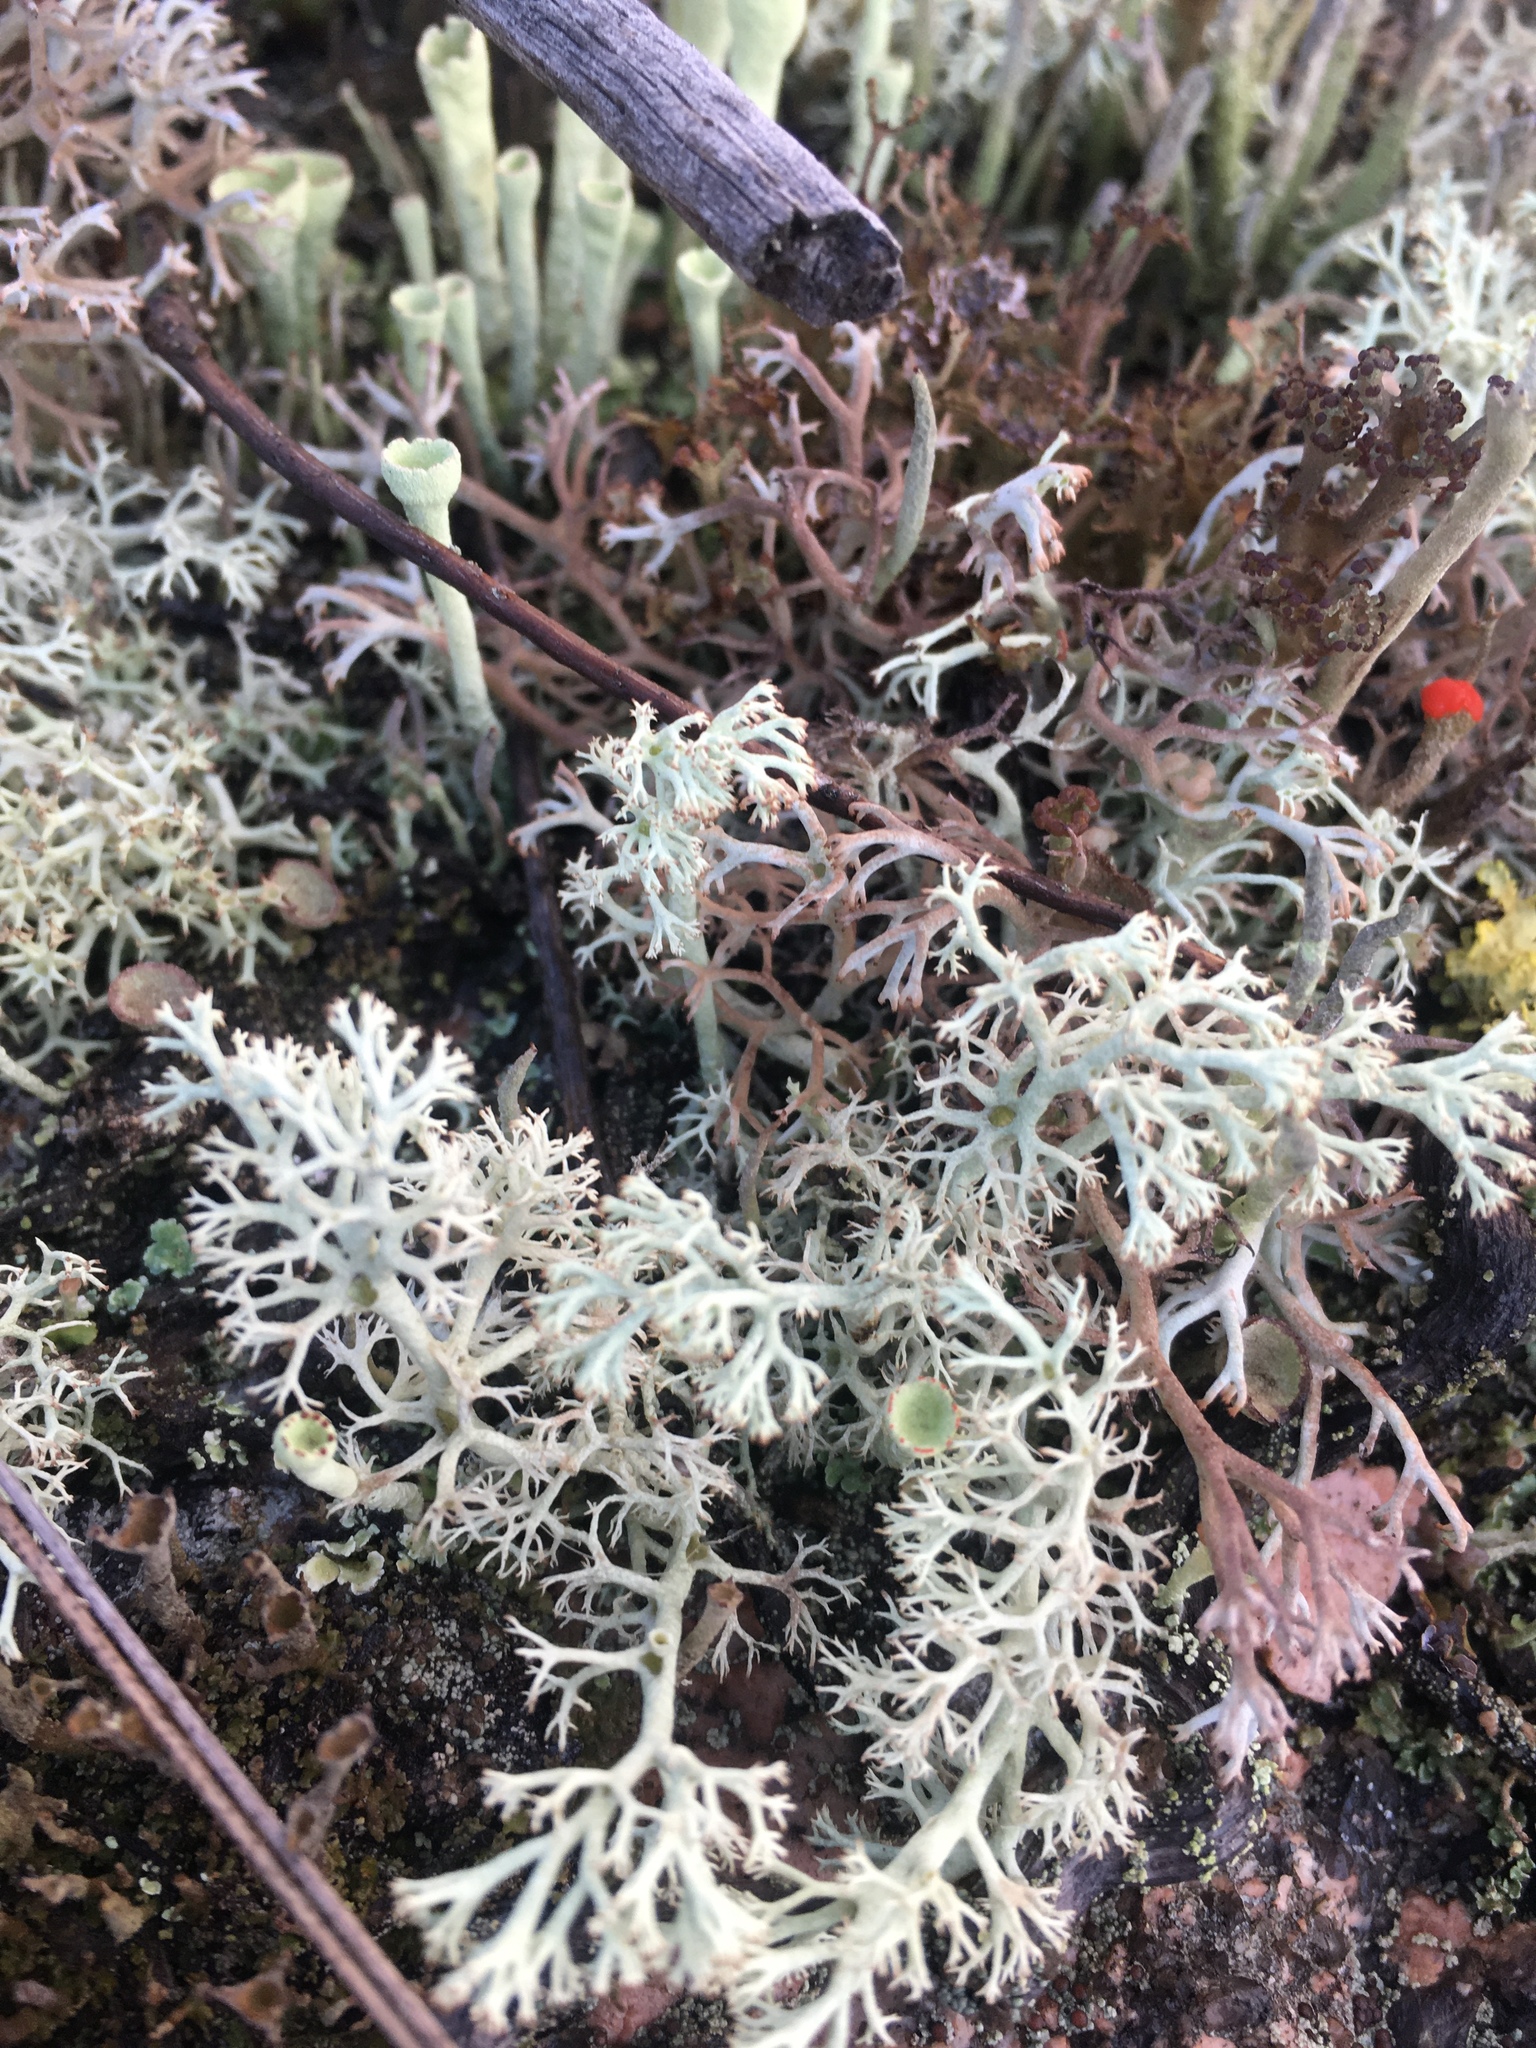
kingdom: Fungi
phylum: Ascomycota
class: Lecanoromycetes
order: Lecanorales
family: Cladoniaceae
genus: Cladonia
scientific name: Cladonia rangiferina
